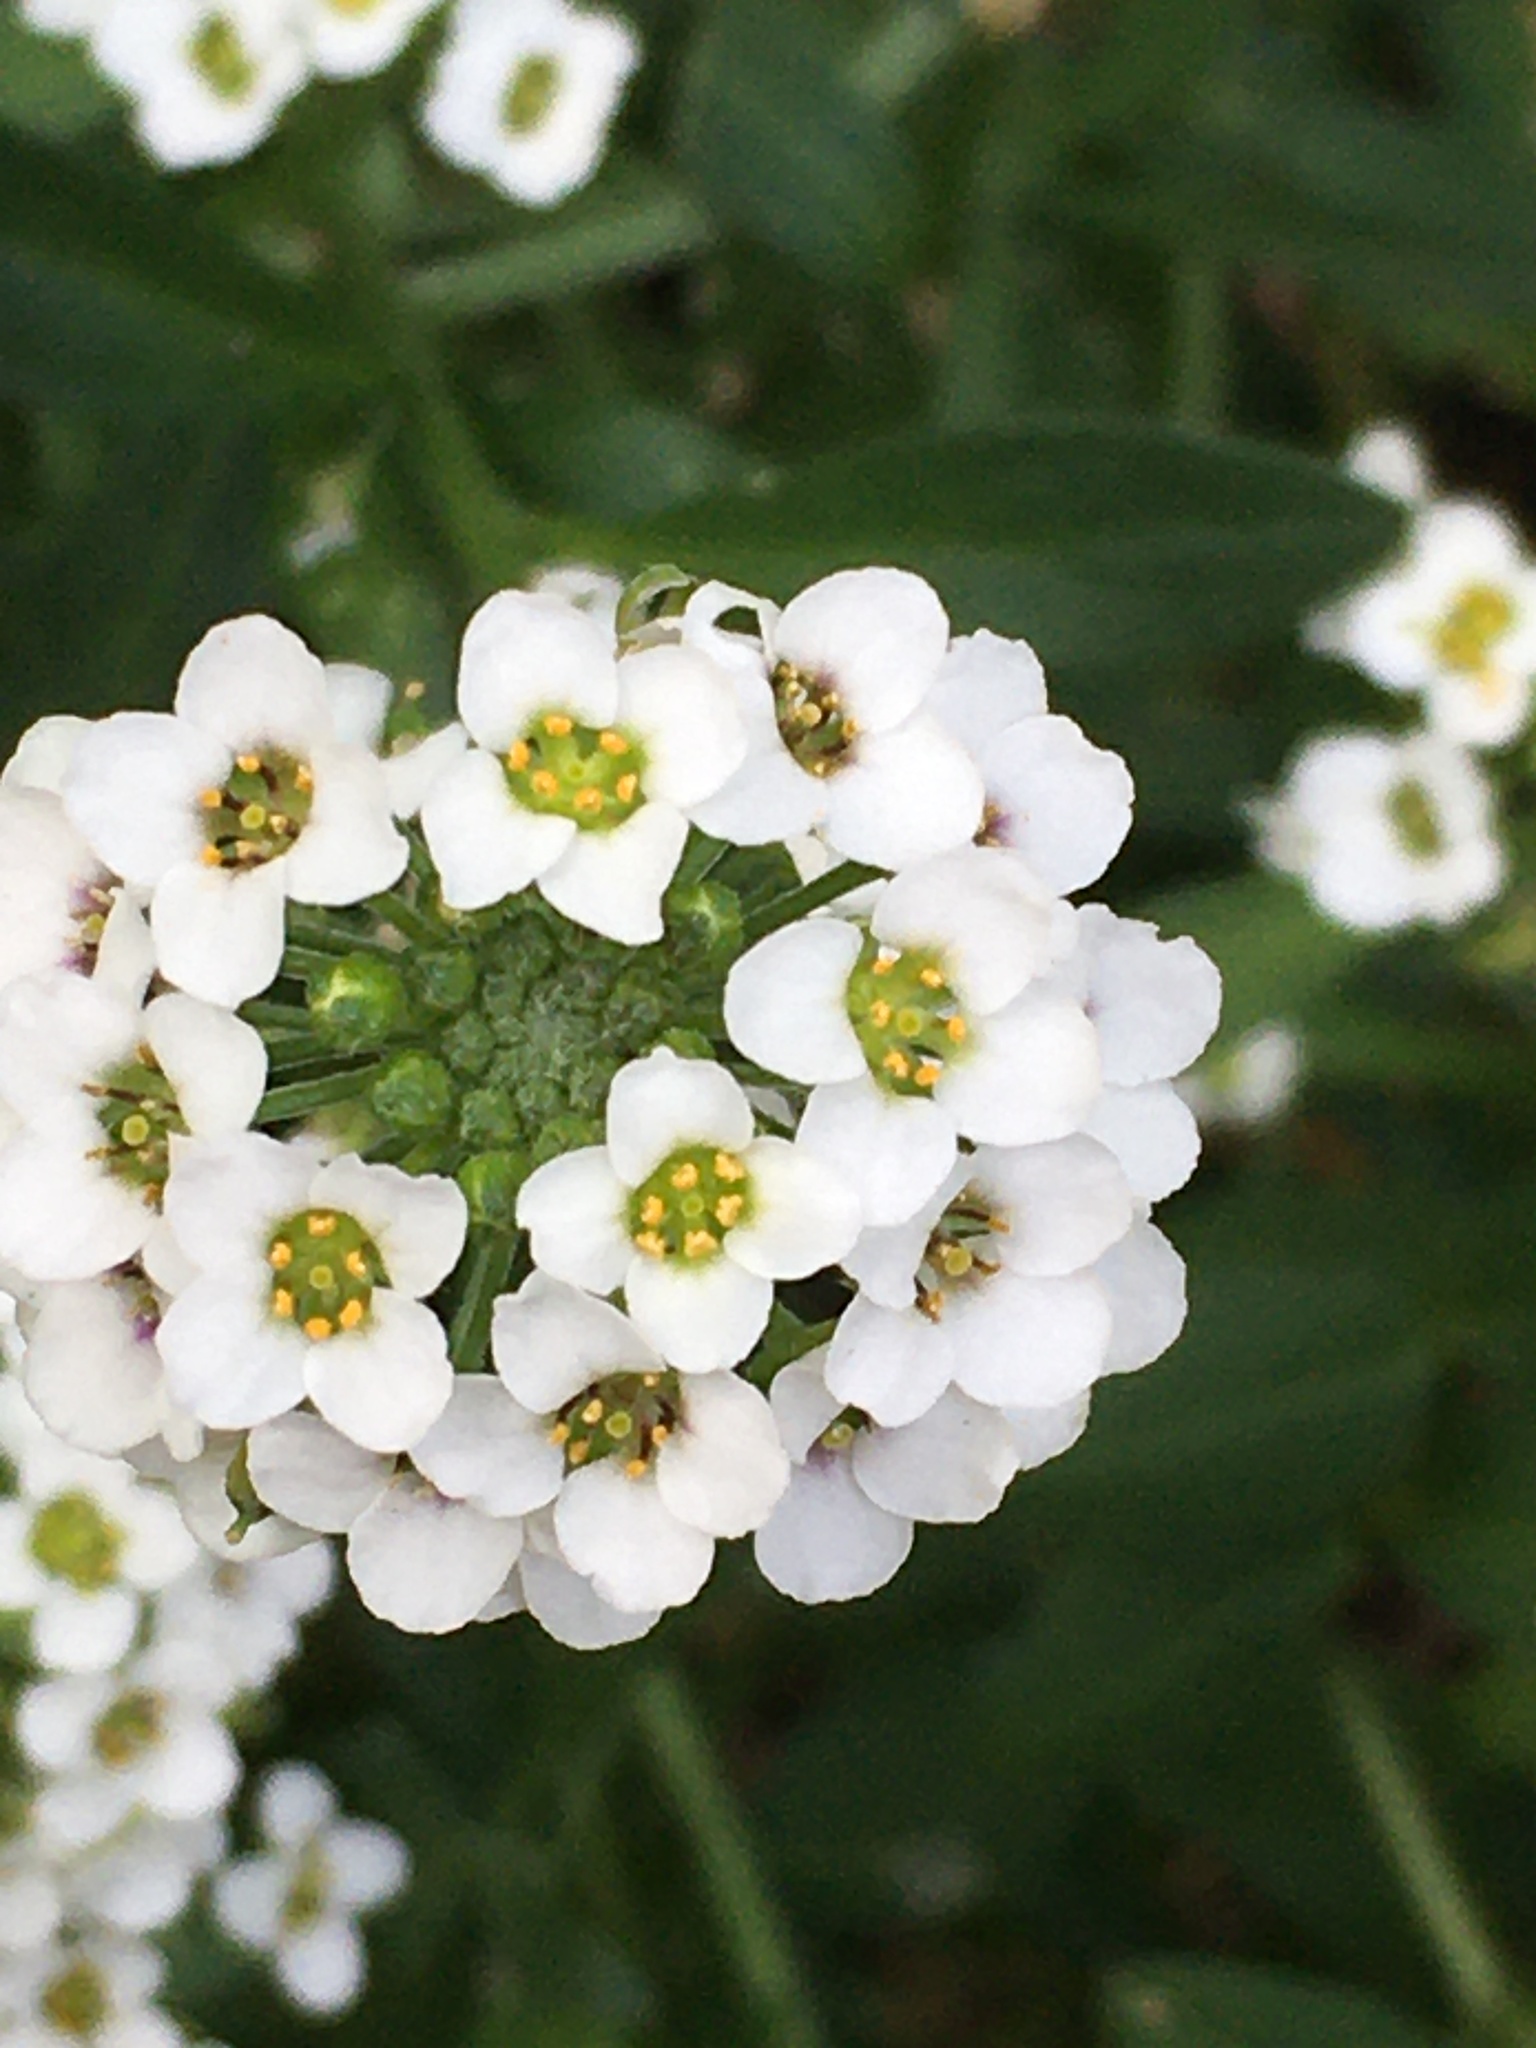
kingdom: Plantae
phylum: Tracheophyta
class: Magnoliopsida
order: Brassicales
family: Brassicaceae
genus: Lobularia
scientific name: Lobularia maritima
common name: Sweet alison
